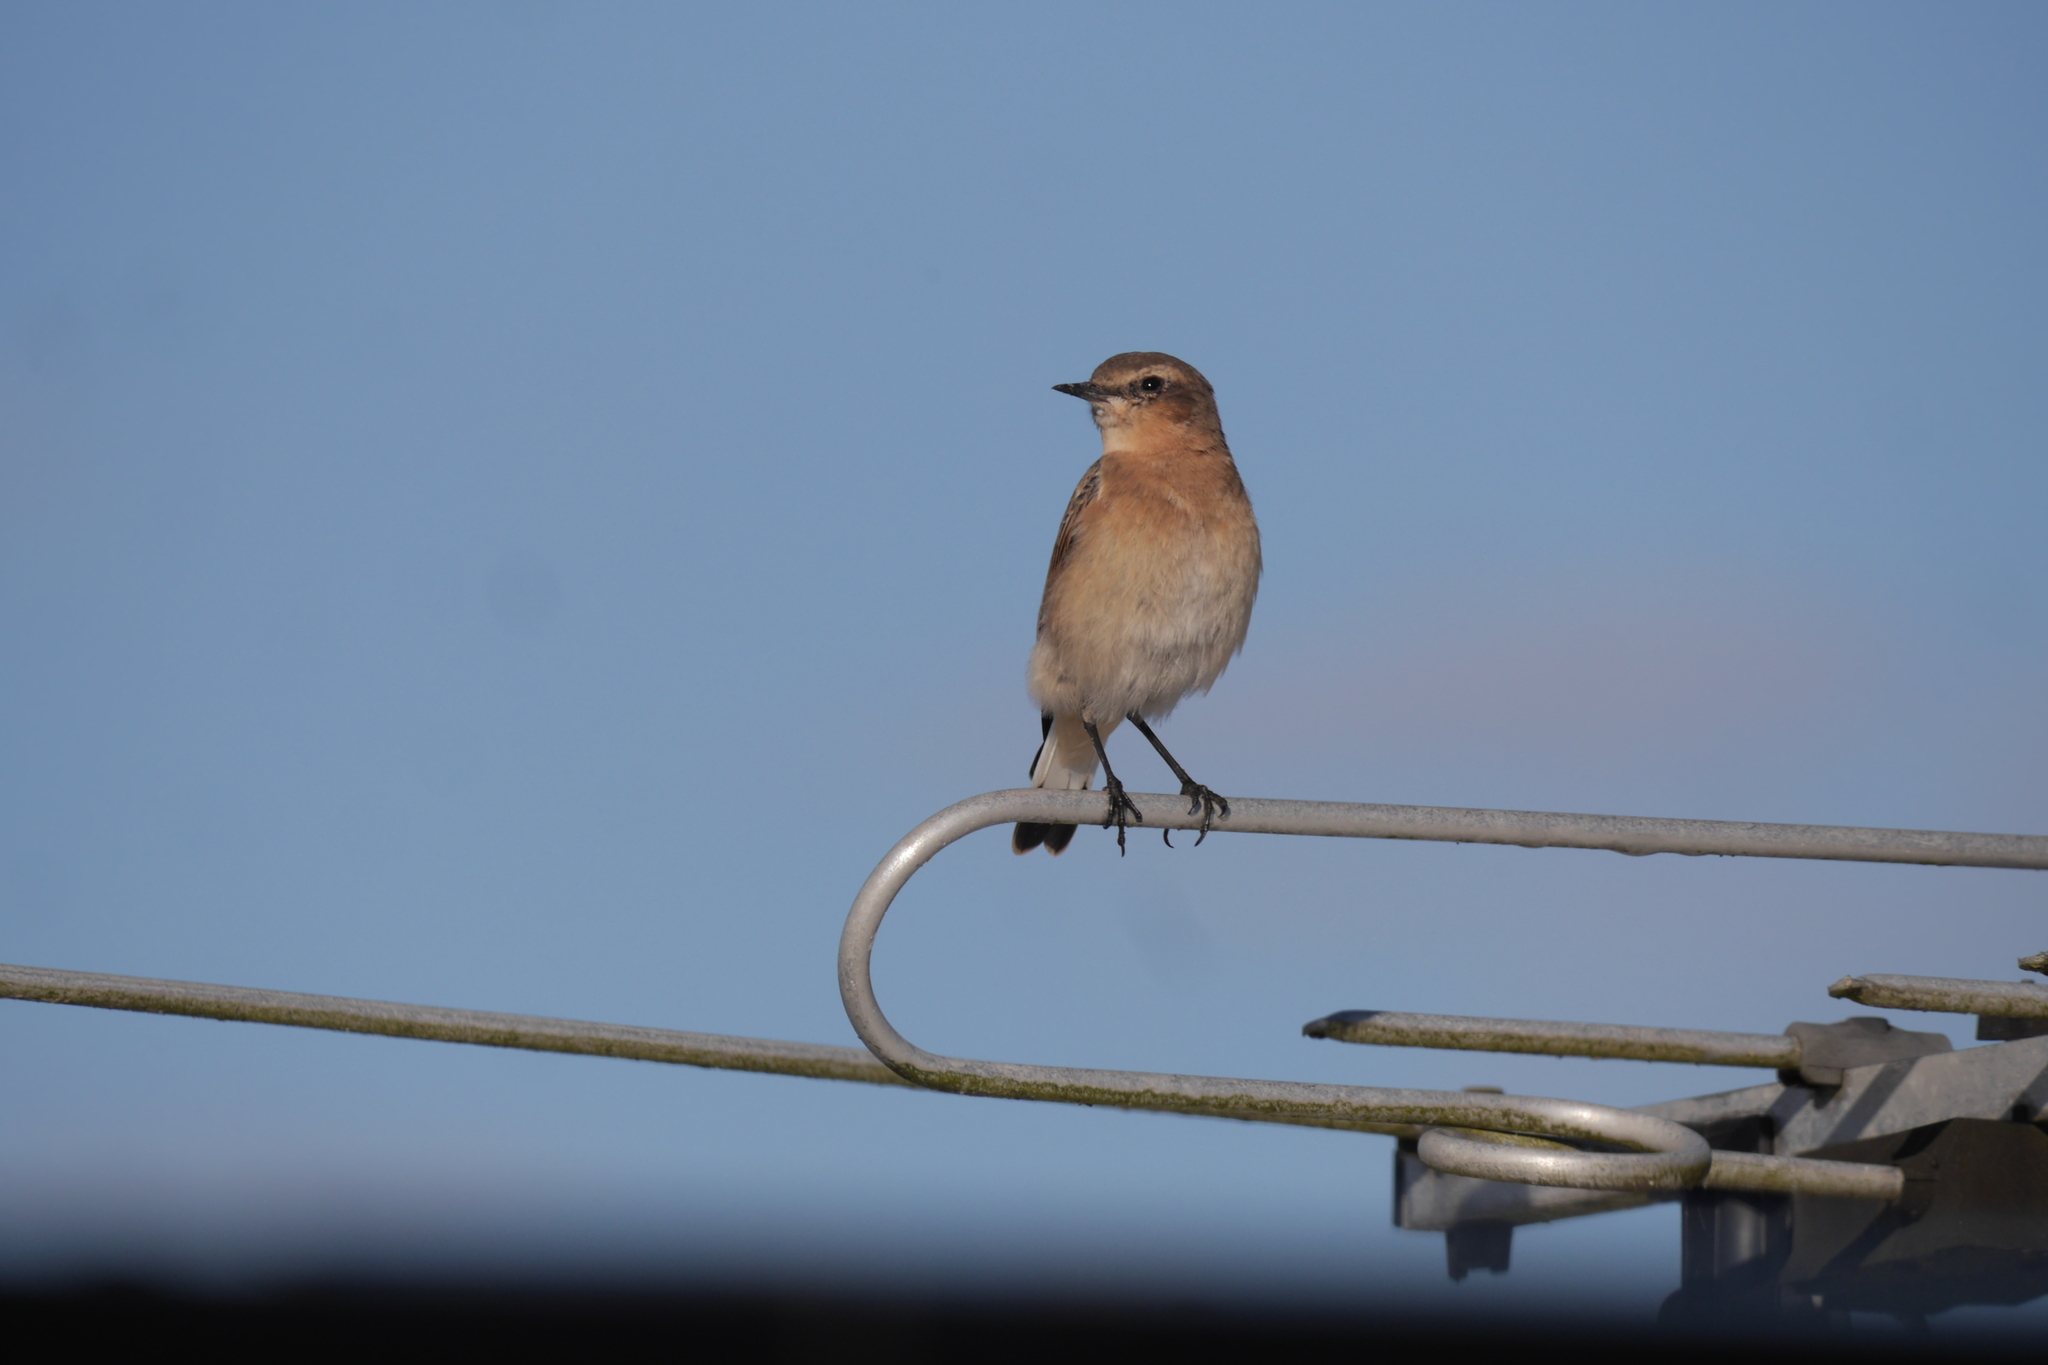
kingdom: Animalia
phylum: Chordata
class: Aves
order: Passeriformes
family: Muscicapidae
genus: Oenanthe
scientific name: Oenanthe oenanthe
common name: Northern wheatear
